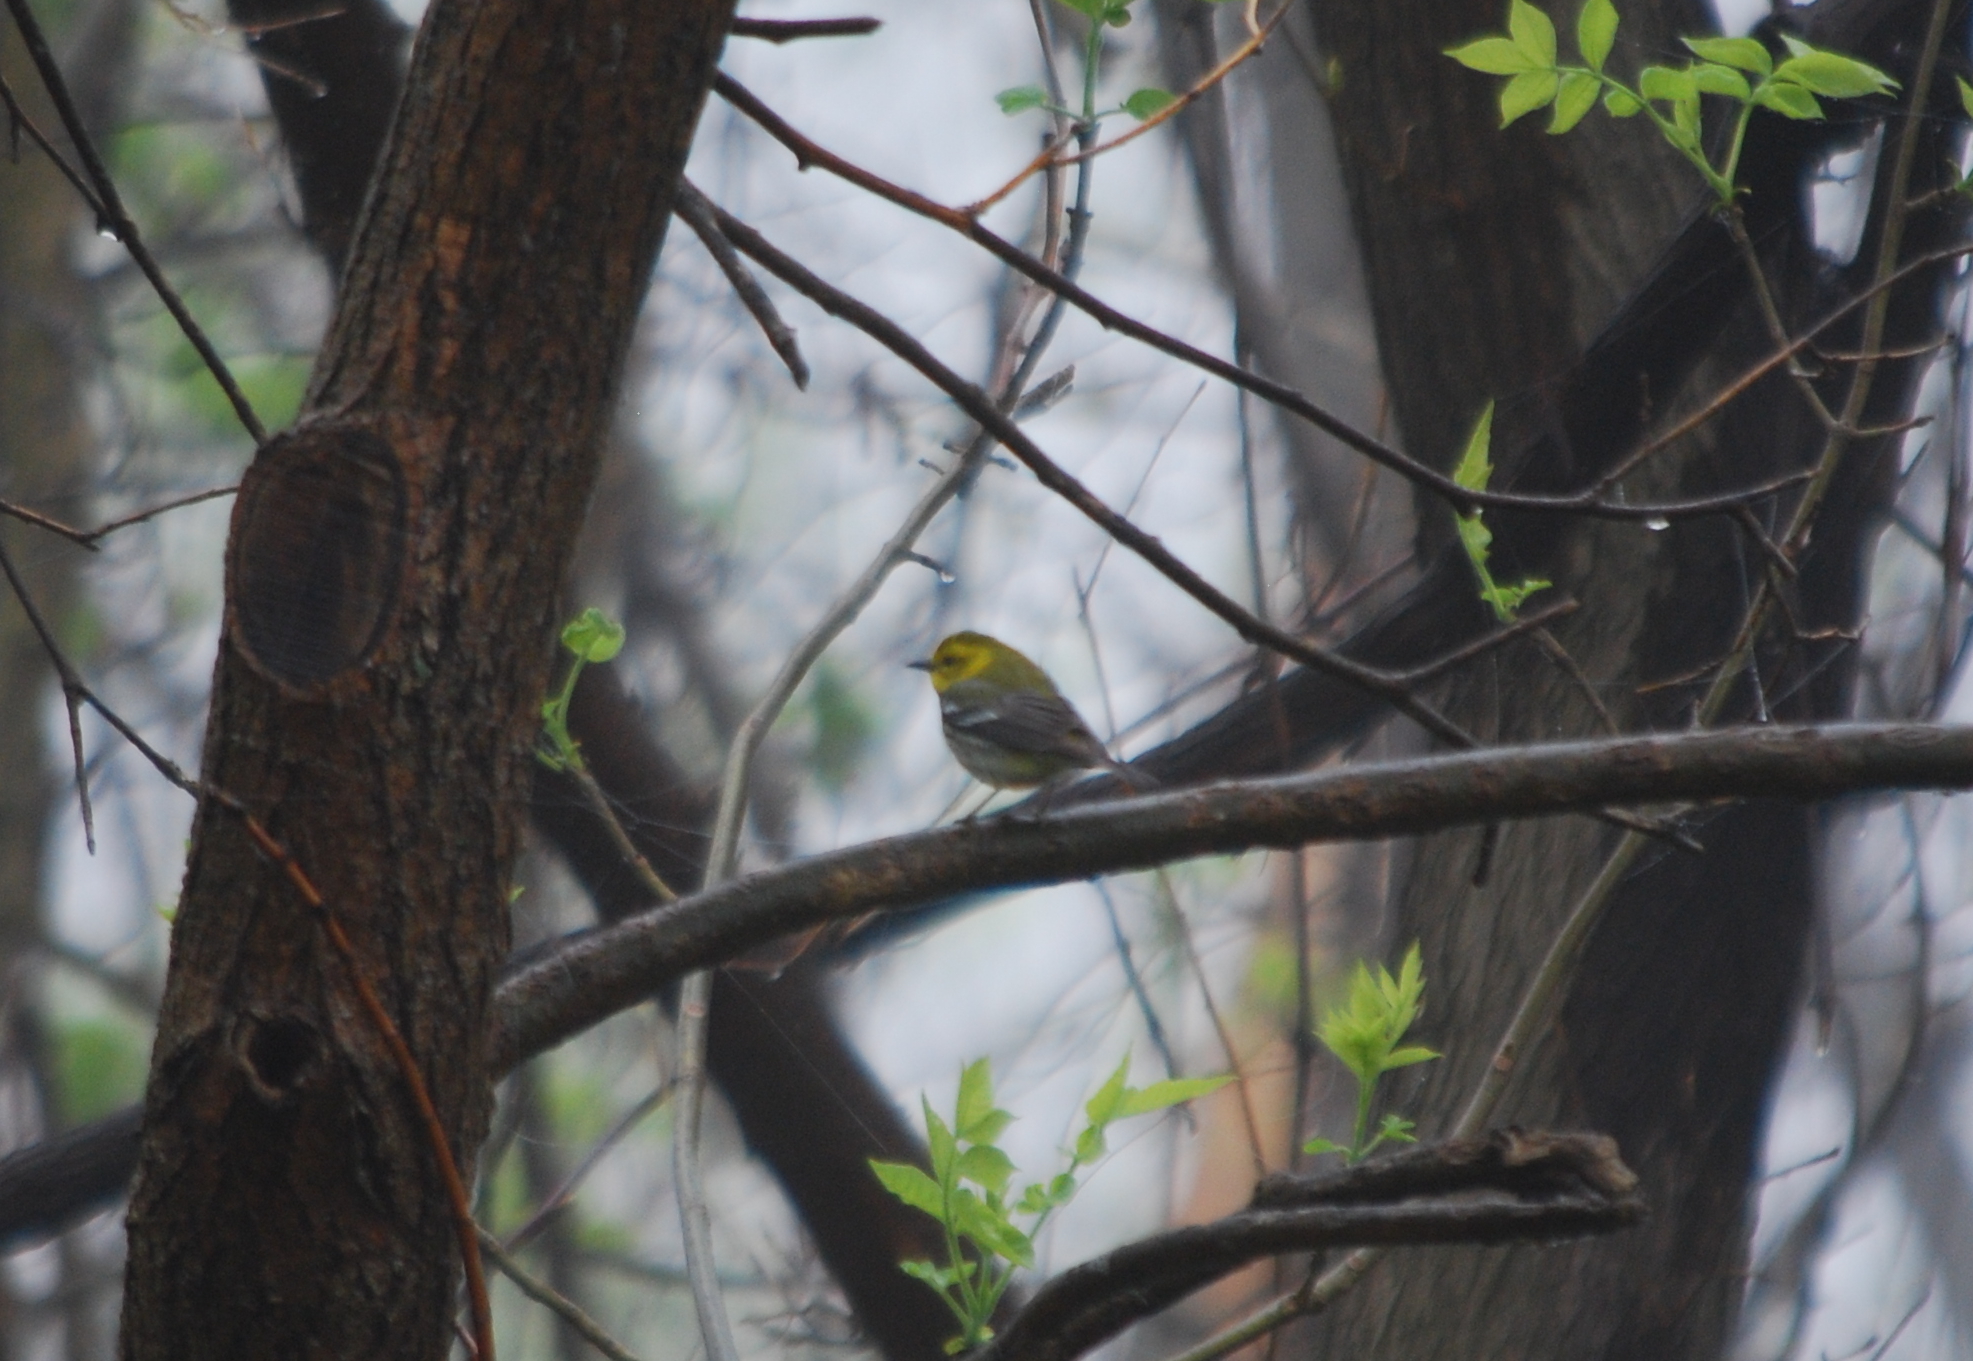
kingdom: Animalia
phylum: Chordata
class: Aves
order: Passeriformes
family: Parulidae
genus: Setophaga
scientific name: Setophaga virens
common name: Black-throated green warbler
